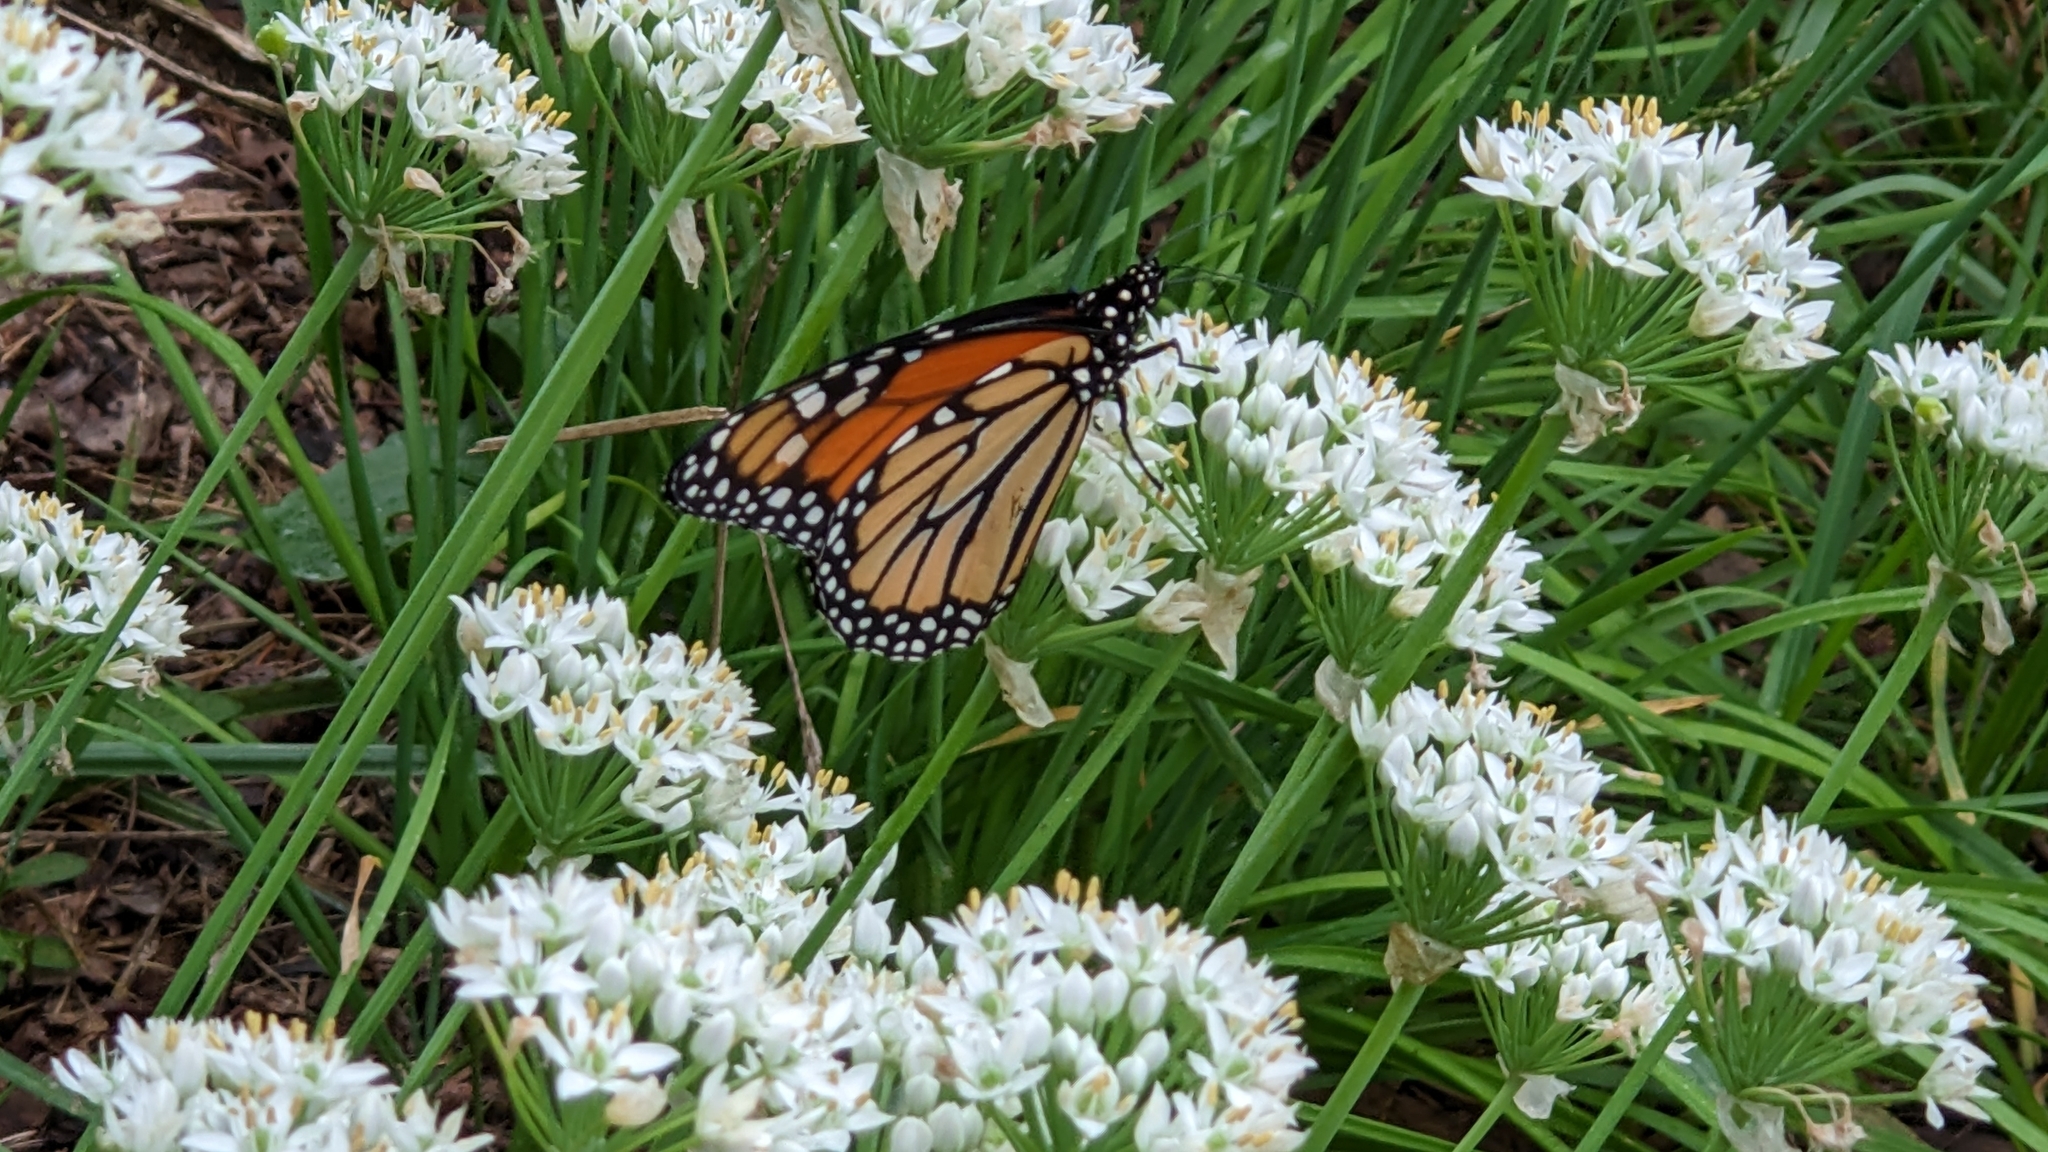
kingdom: Animalia
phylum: Arthropoda
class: Insecta
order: Lepidoptera
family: Nymphalidae
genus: Danaus
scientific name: Danaus plexippus
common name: Monarch
